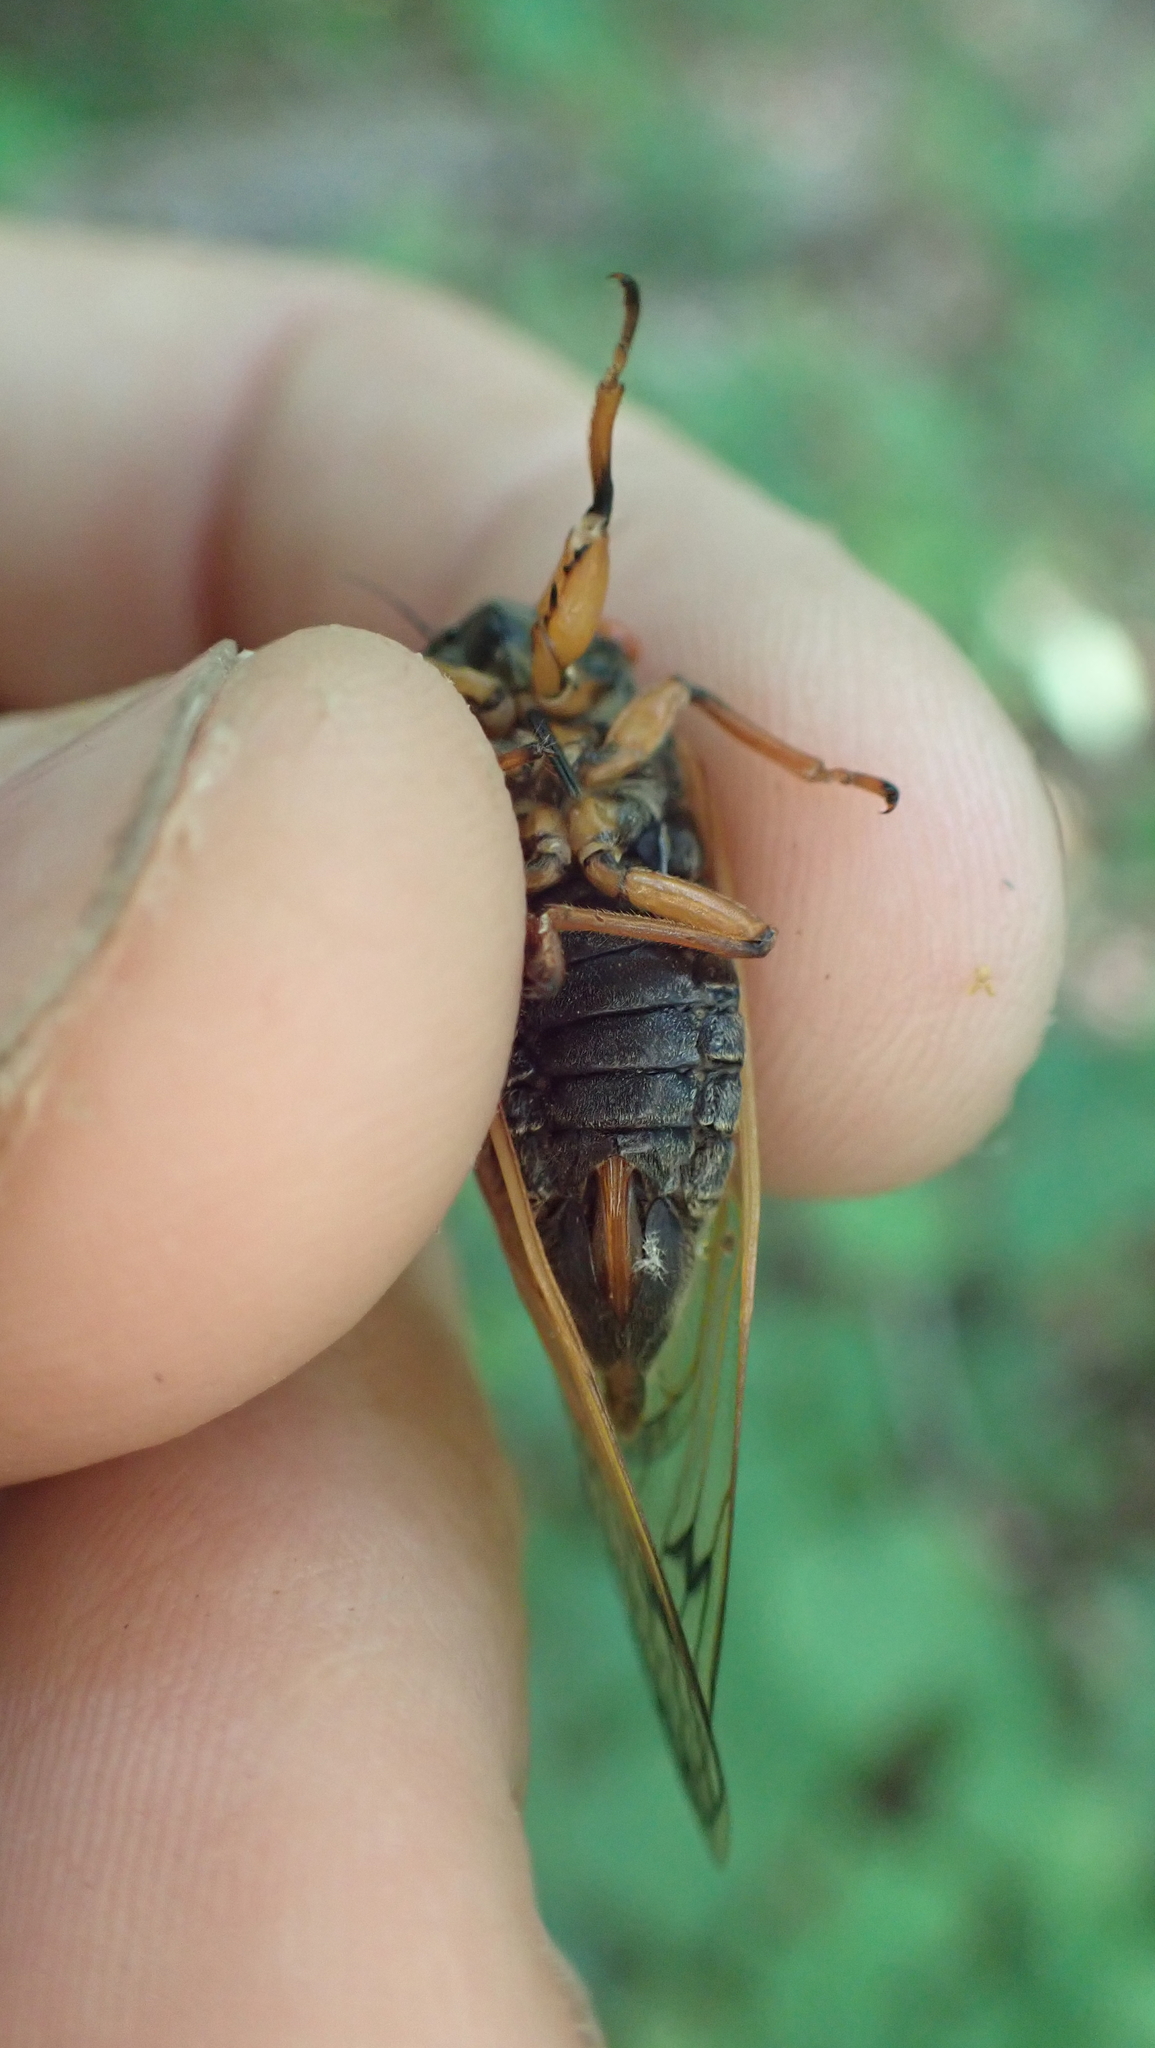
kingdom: Animalia
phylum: Arthropoda
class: Insecta
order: Hemiptera
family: Cicadidae
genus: Magicicada
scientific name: Magicicada cassini
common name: Cassin's 17-year cicada
